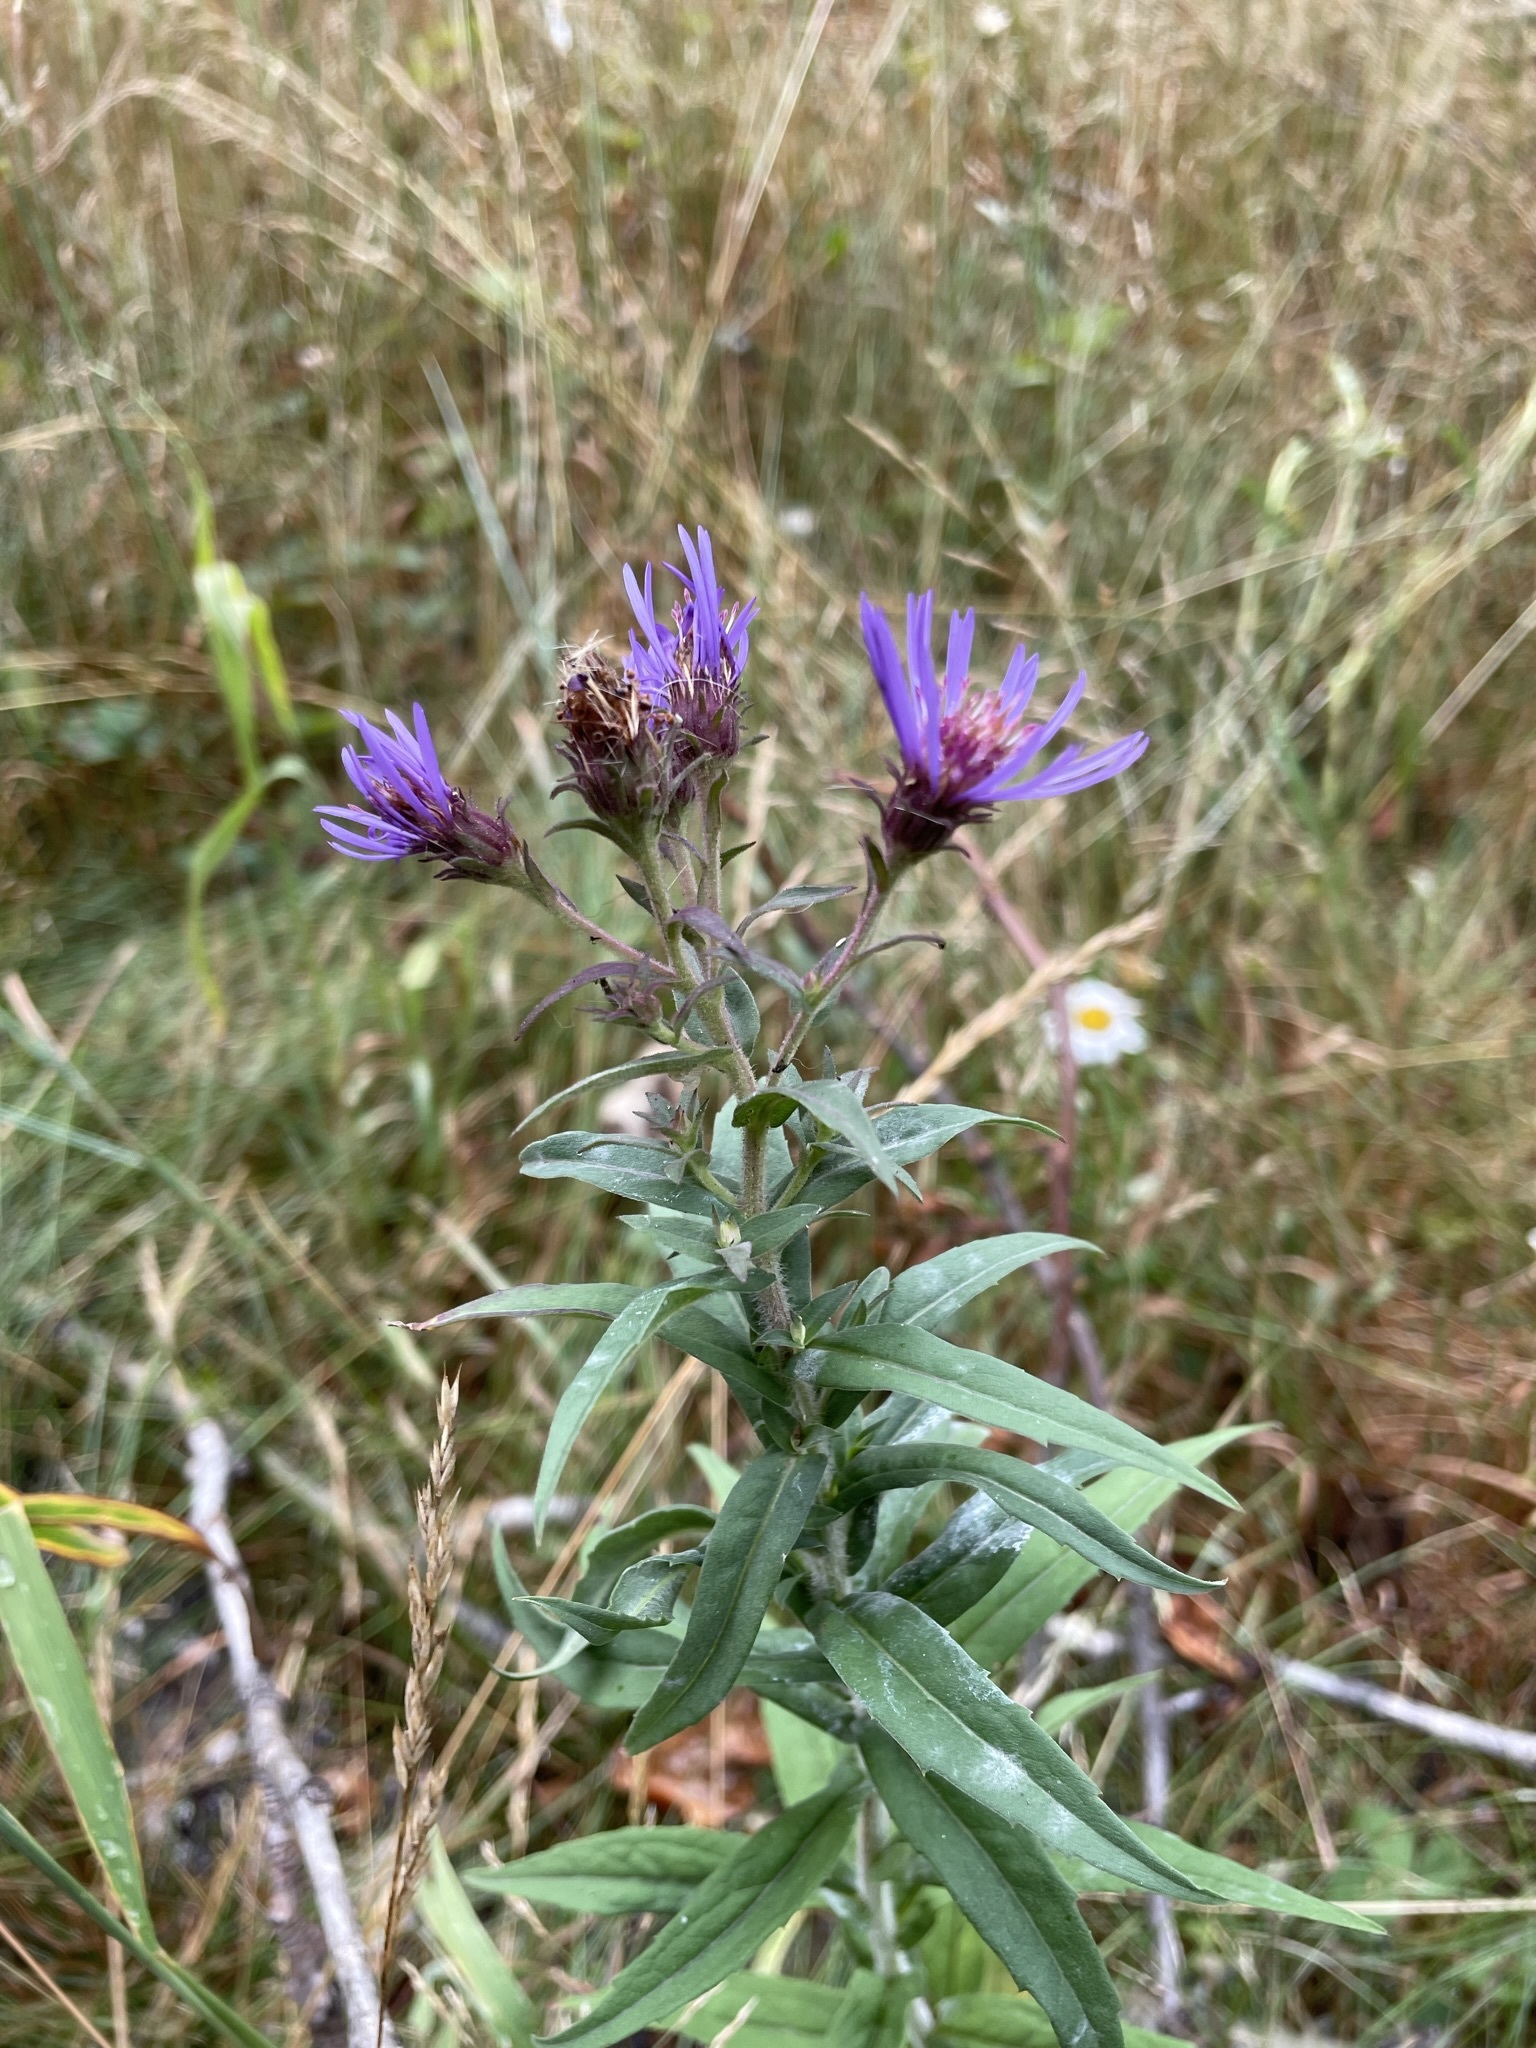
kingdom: Plantae
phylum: Tracheophyta
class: Magnoliopsida
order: Asterales
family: Asteraceae
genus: Canadanthus
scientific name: Canadanthus modestus
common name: Great northern aster
